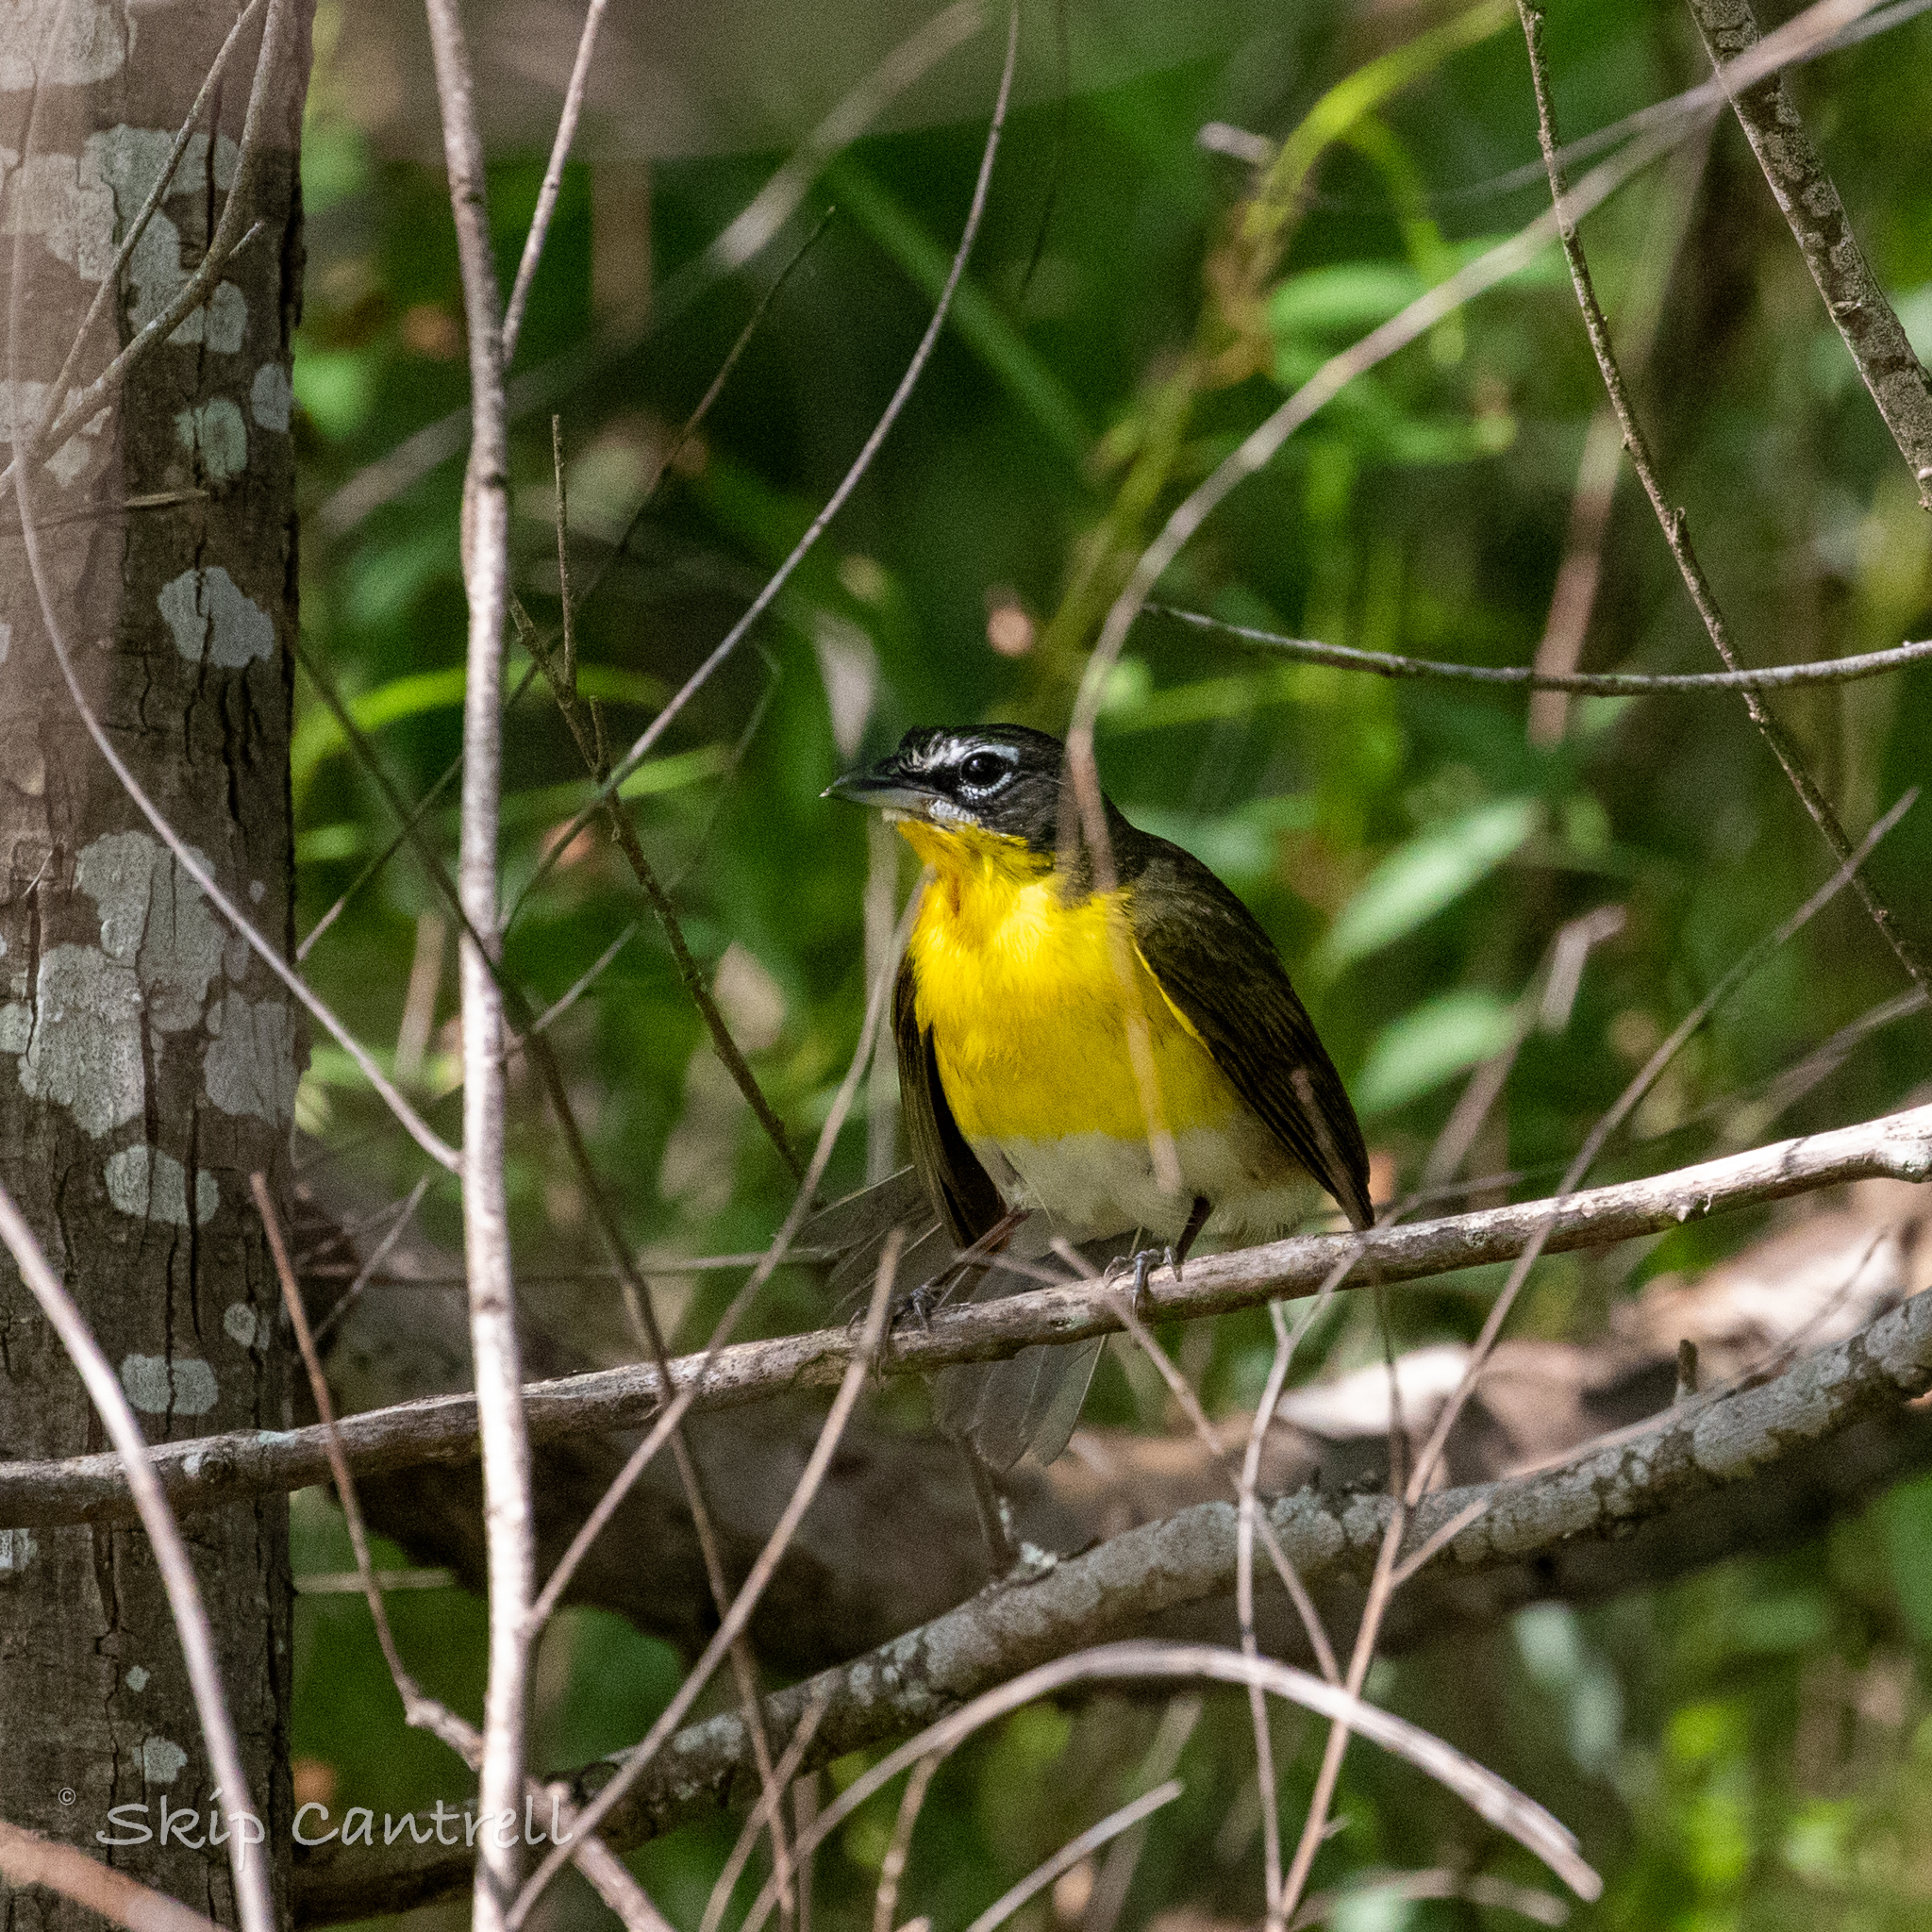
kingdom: Animalia
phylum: Chordata
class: Aves
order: Passeriformes
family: Parulidae
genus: Icteria
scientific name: Icteria virens
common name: Yellow-breasted chat
